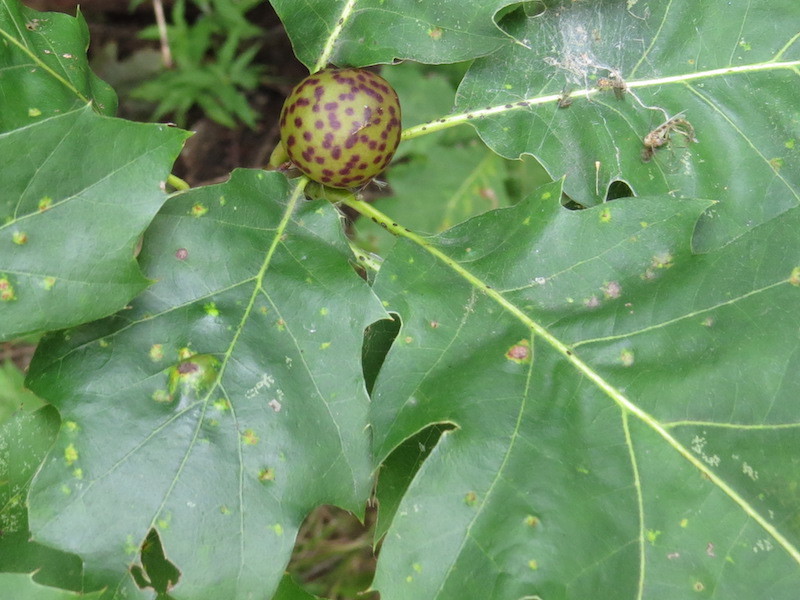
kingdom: Animalia
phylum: Arthropoda
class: Insecta
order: Hymenoptera
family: Cynipidae
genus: Amphibolips
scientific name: Amphibolips
